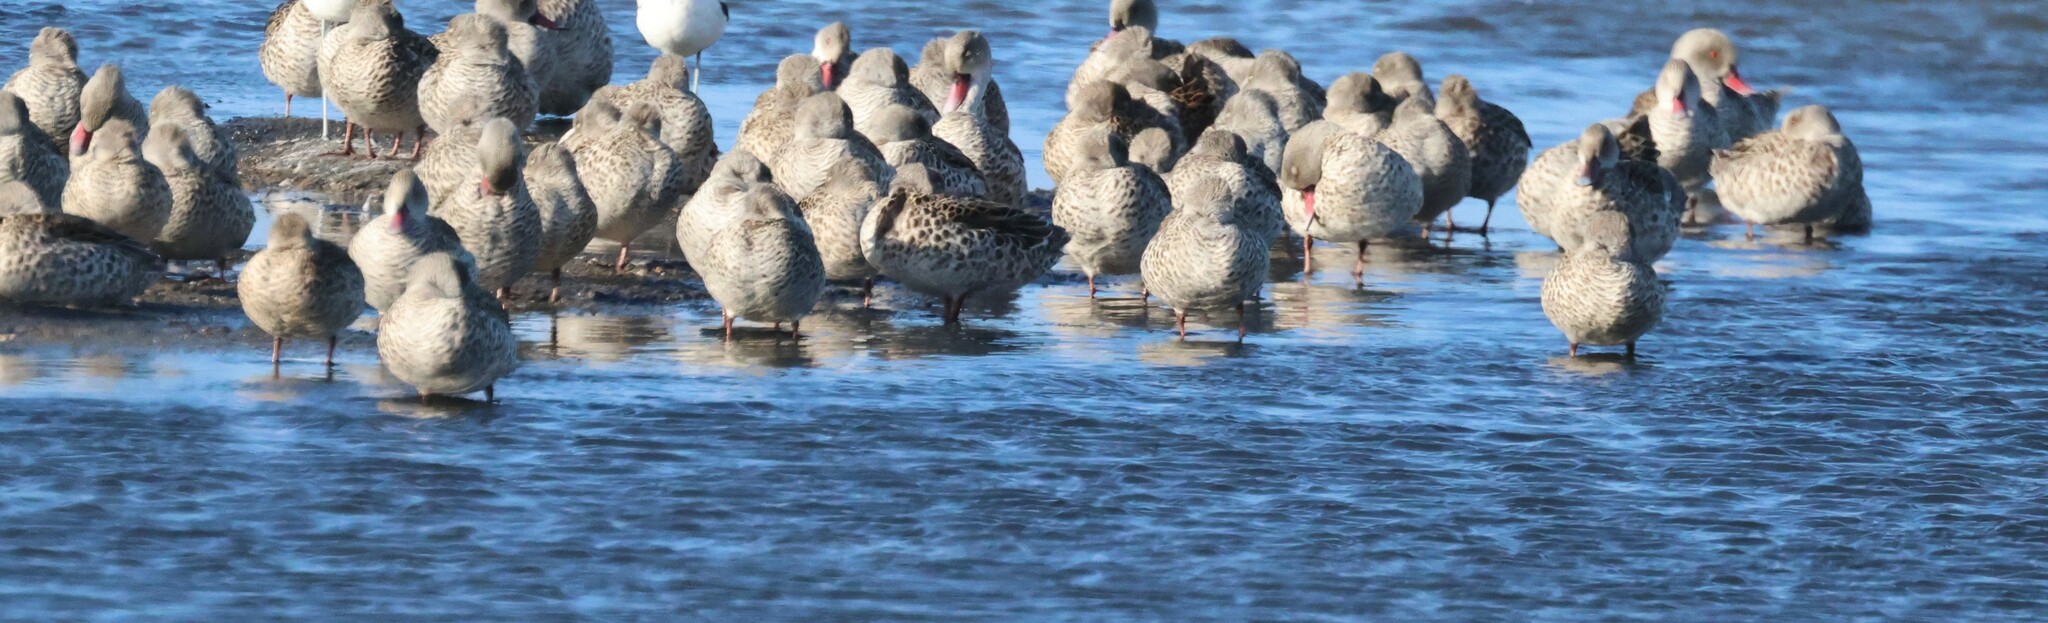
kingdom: Animalia
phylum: Chordata
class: Aves
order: Anseriformes
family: Anatidae
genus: Anas
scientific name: Anas capensis
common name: Cape teal
